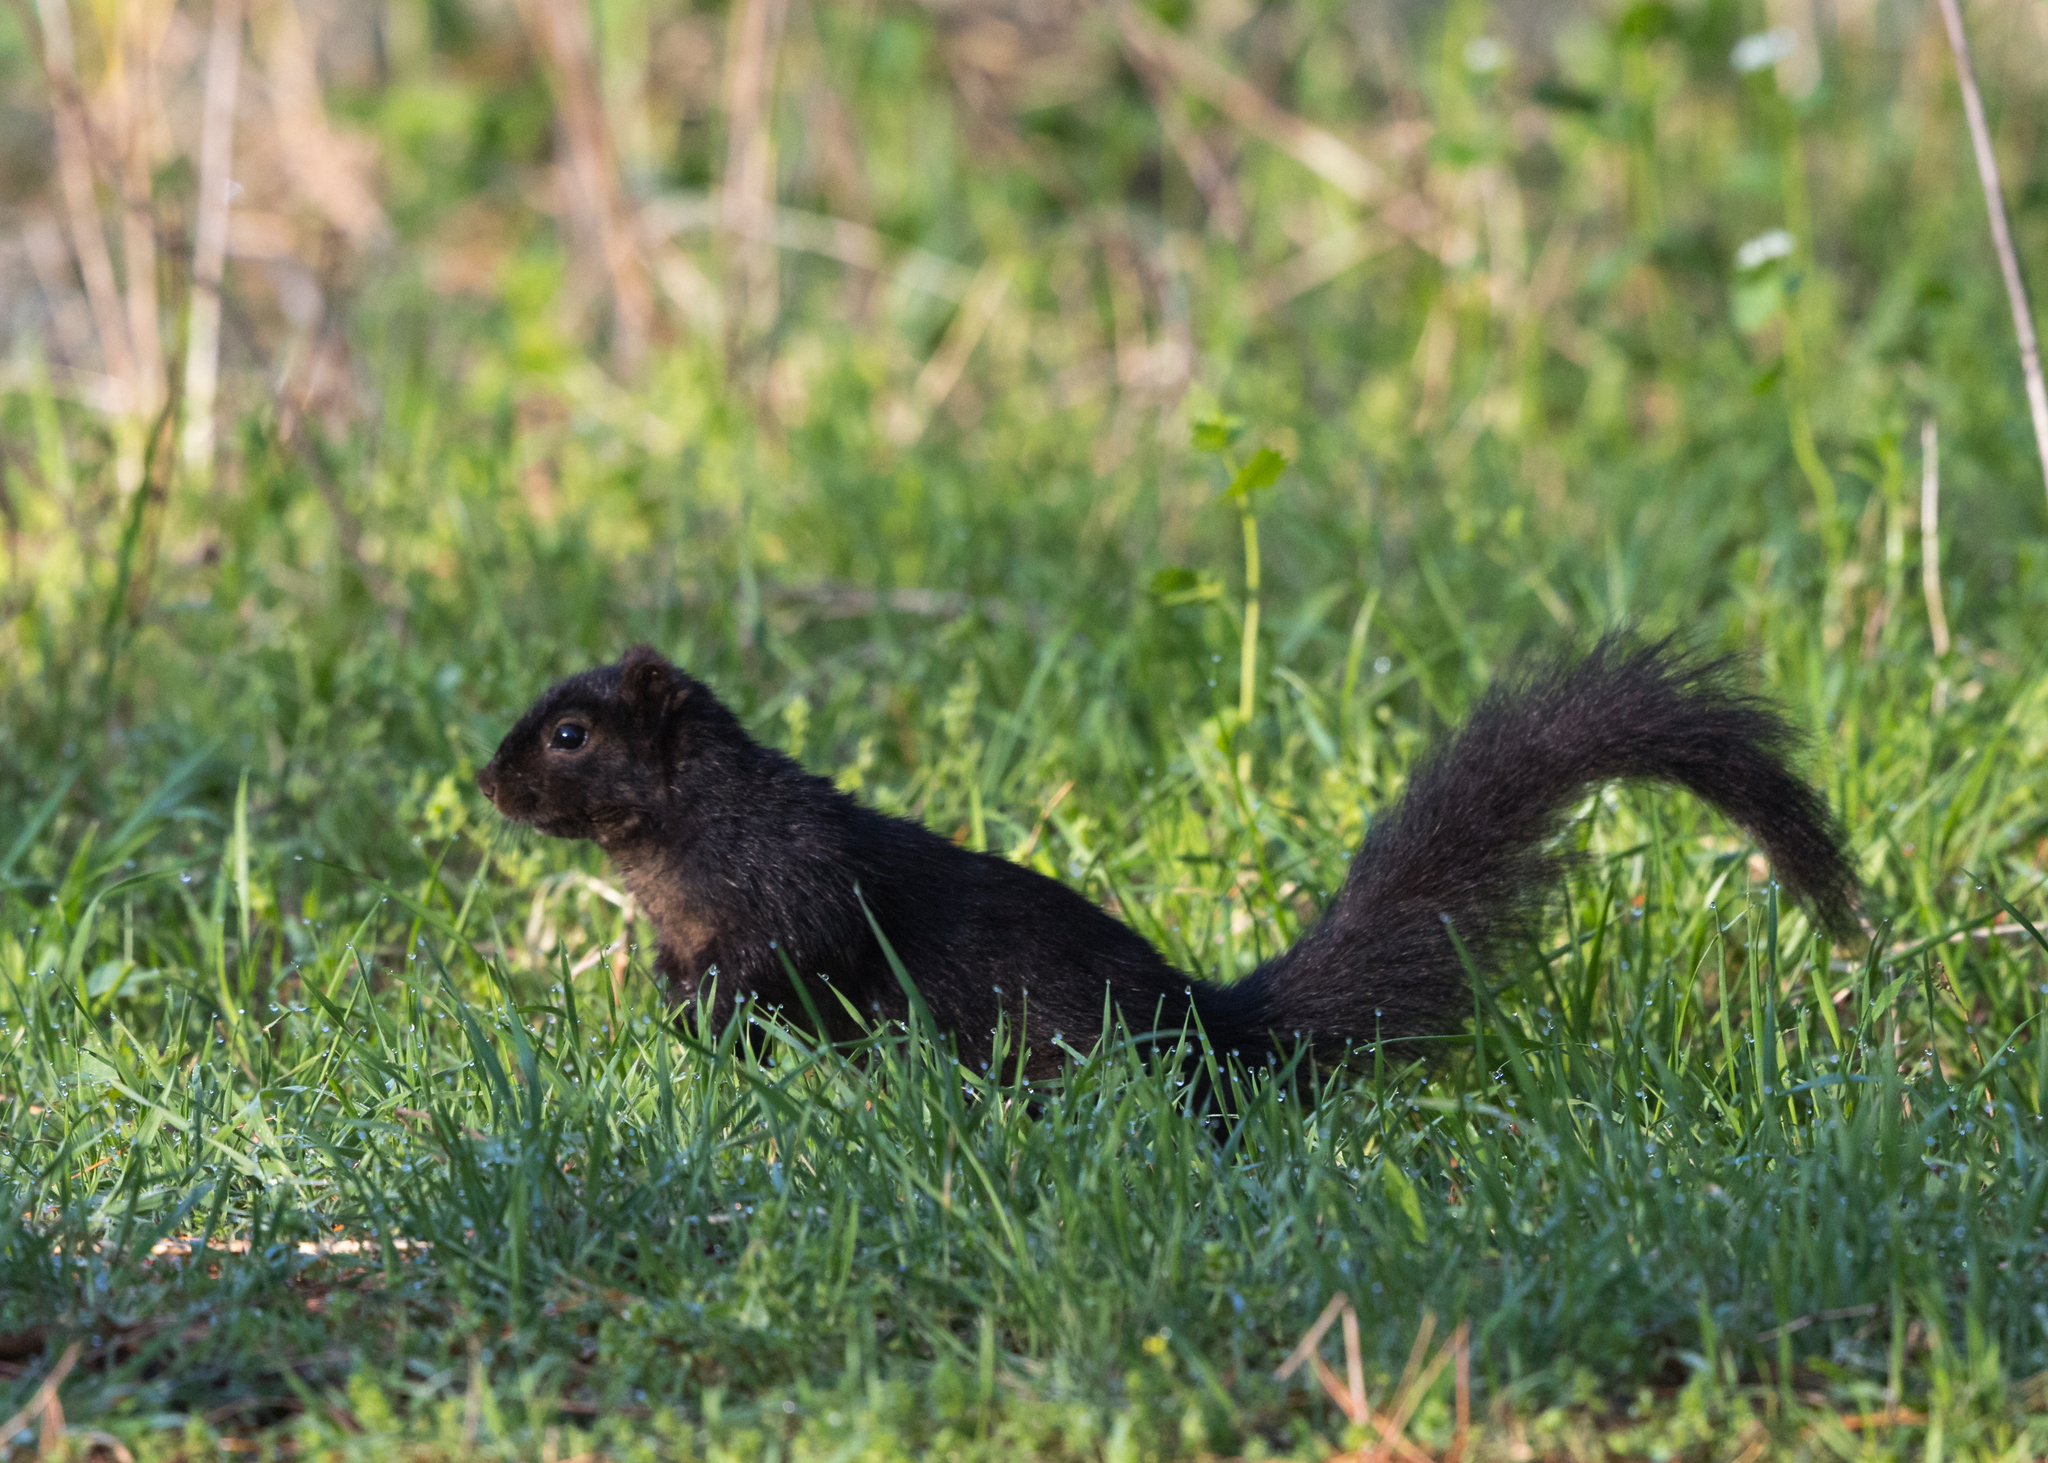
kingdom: Animalia
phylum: Chordata
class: Mammalia
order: Rodentia
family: Sciuridae
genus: Sciurus
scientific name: Sciurus niger
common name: Fox squirrel
